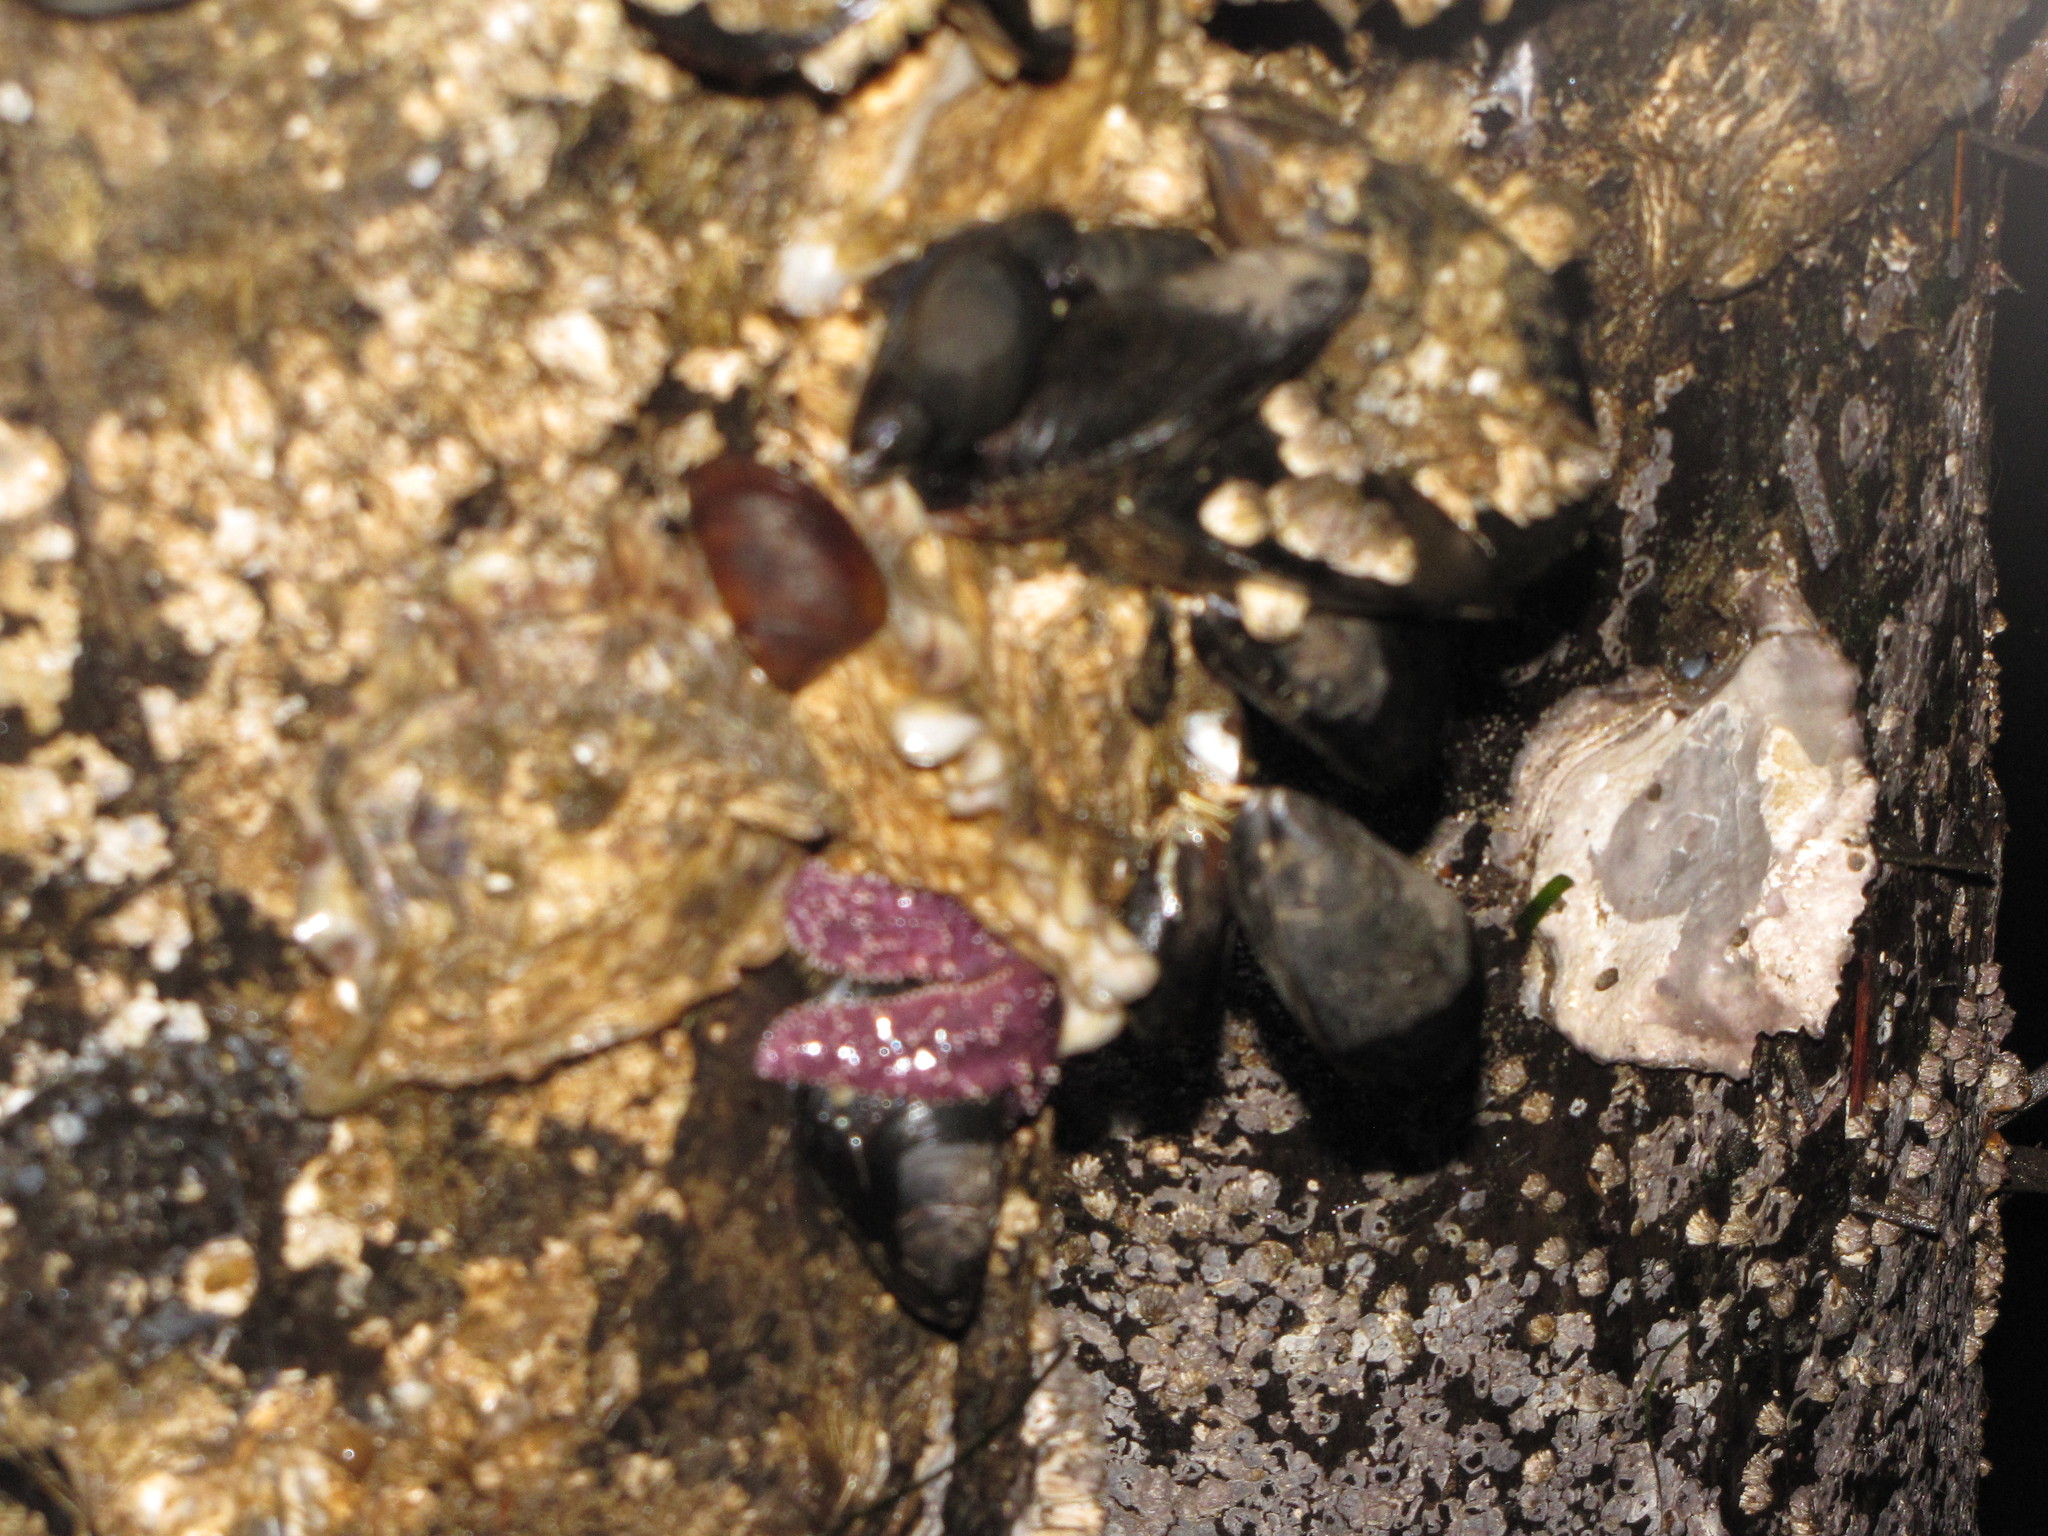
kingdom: Animalia
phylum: Echinodermata
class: Asteroidea
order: Forcipulatida
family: Asteriidae
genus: Pisaster
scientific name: Pisaster ochraceus
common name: Ochre stars
